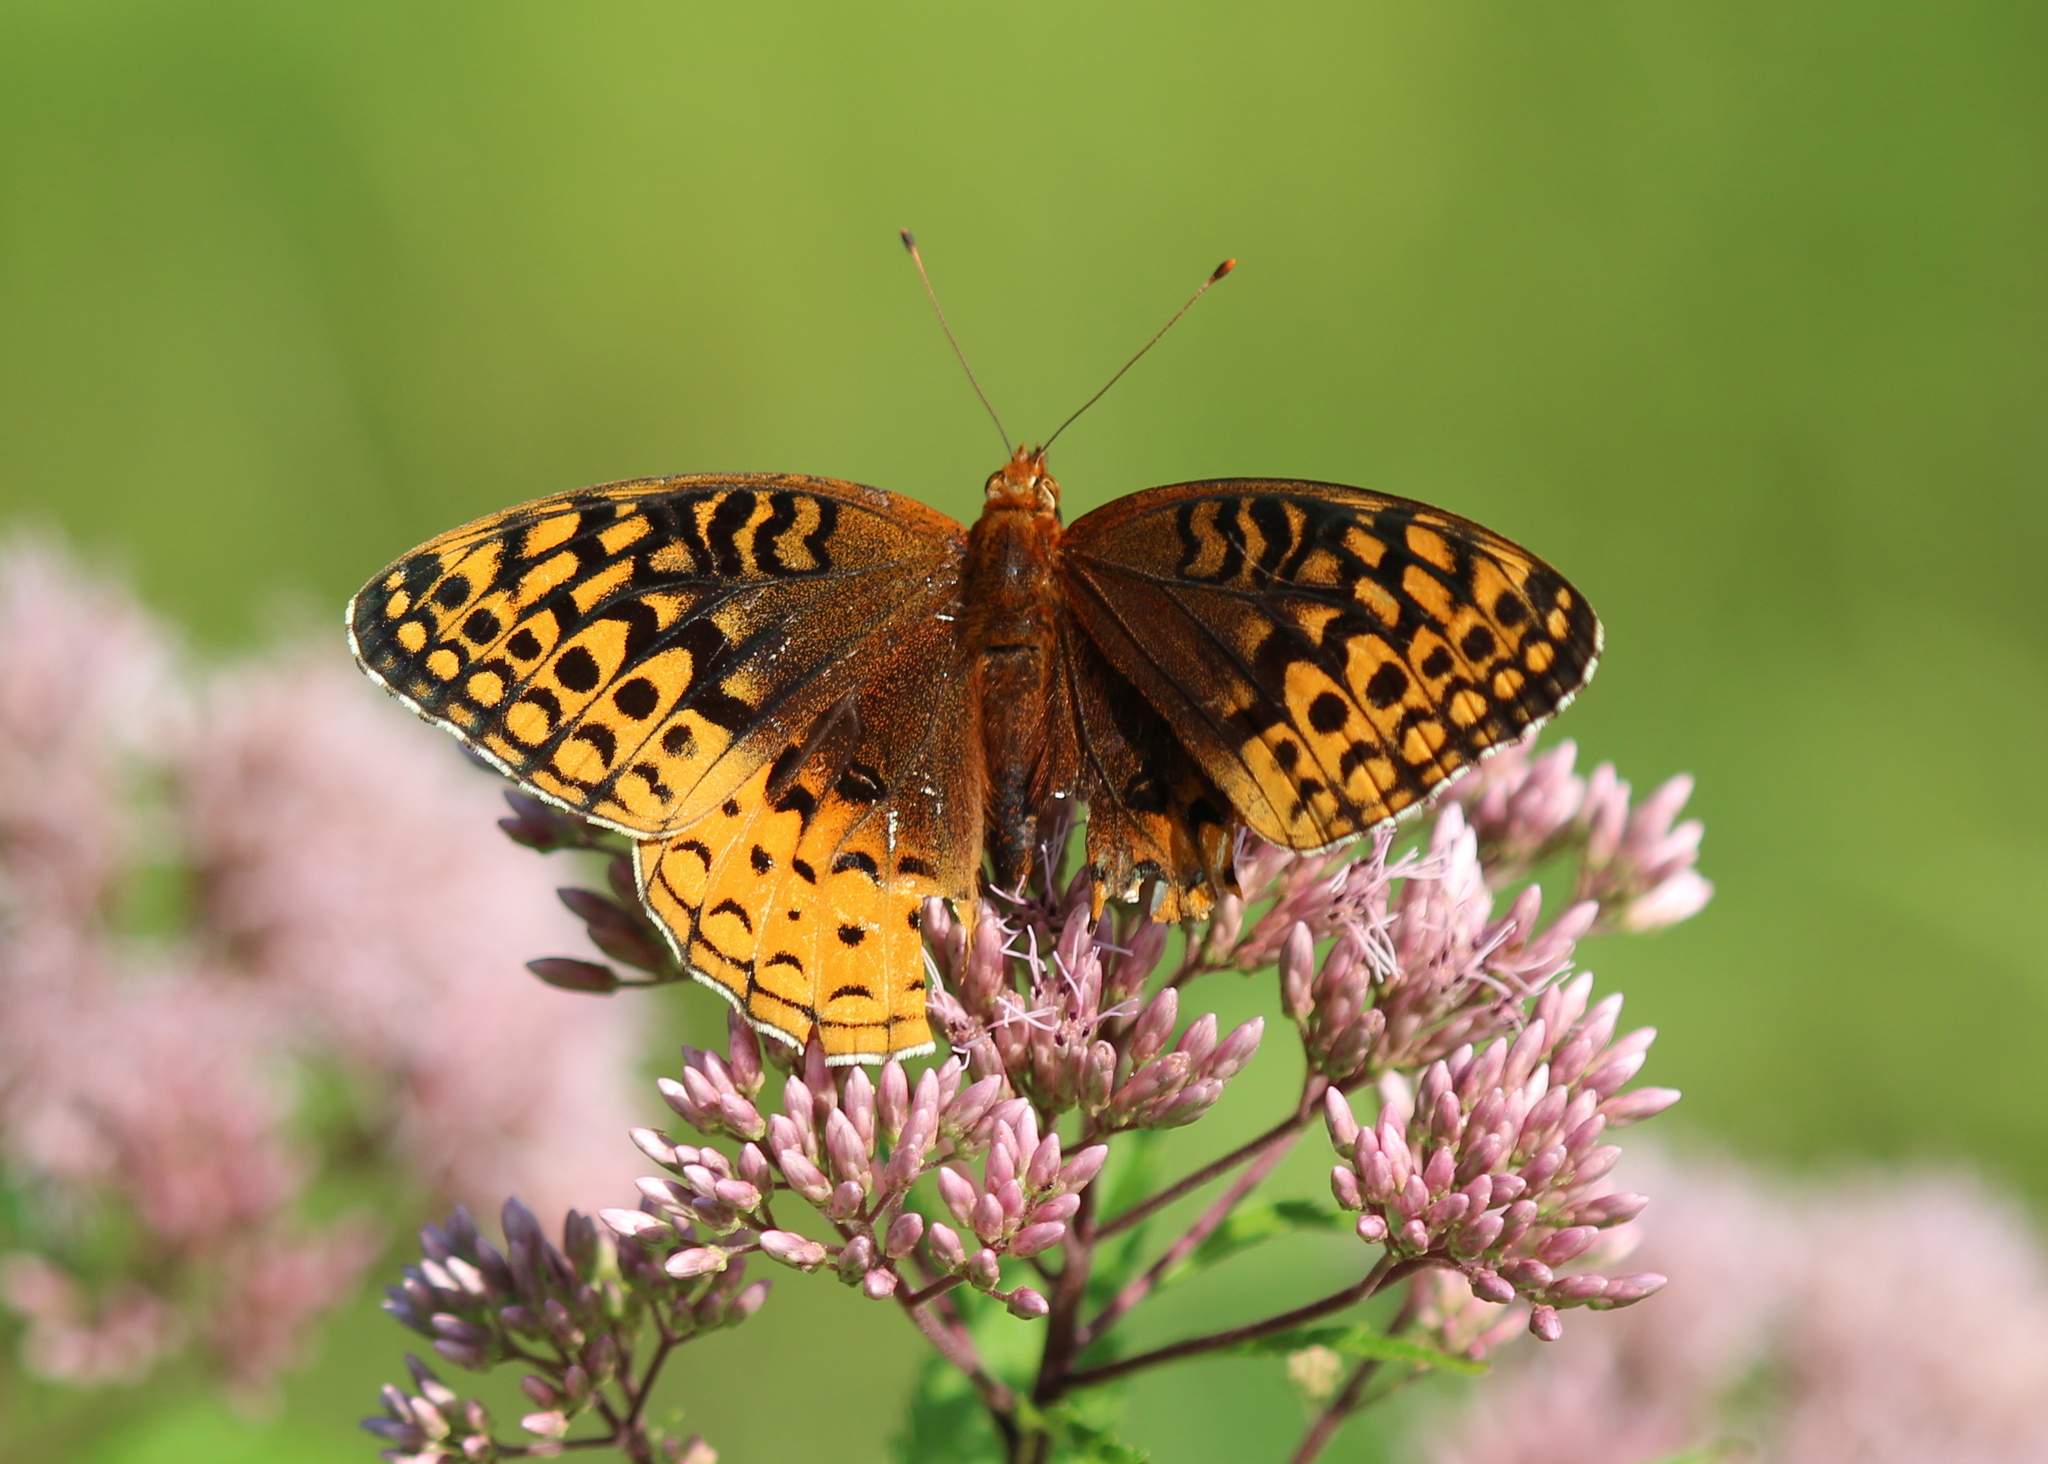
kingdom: Animalia
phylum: Arthropoda
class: Insecta
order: Lepidoptera
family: Nymphalidae
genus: Speyeria
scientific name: Speyeria cybele
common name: Great spangled fritillary
